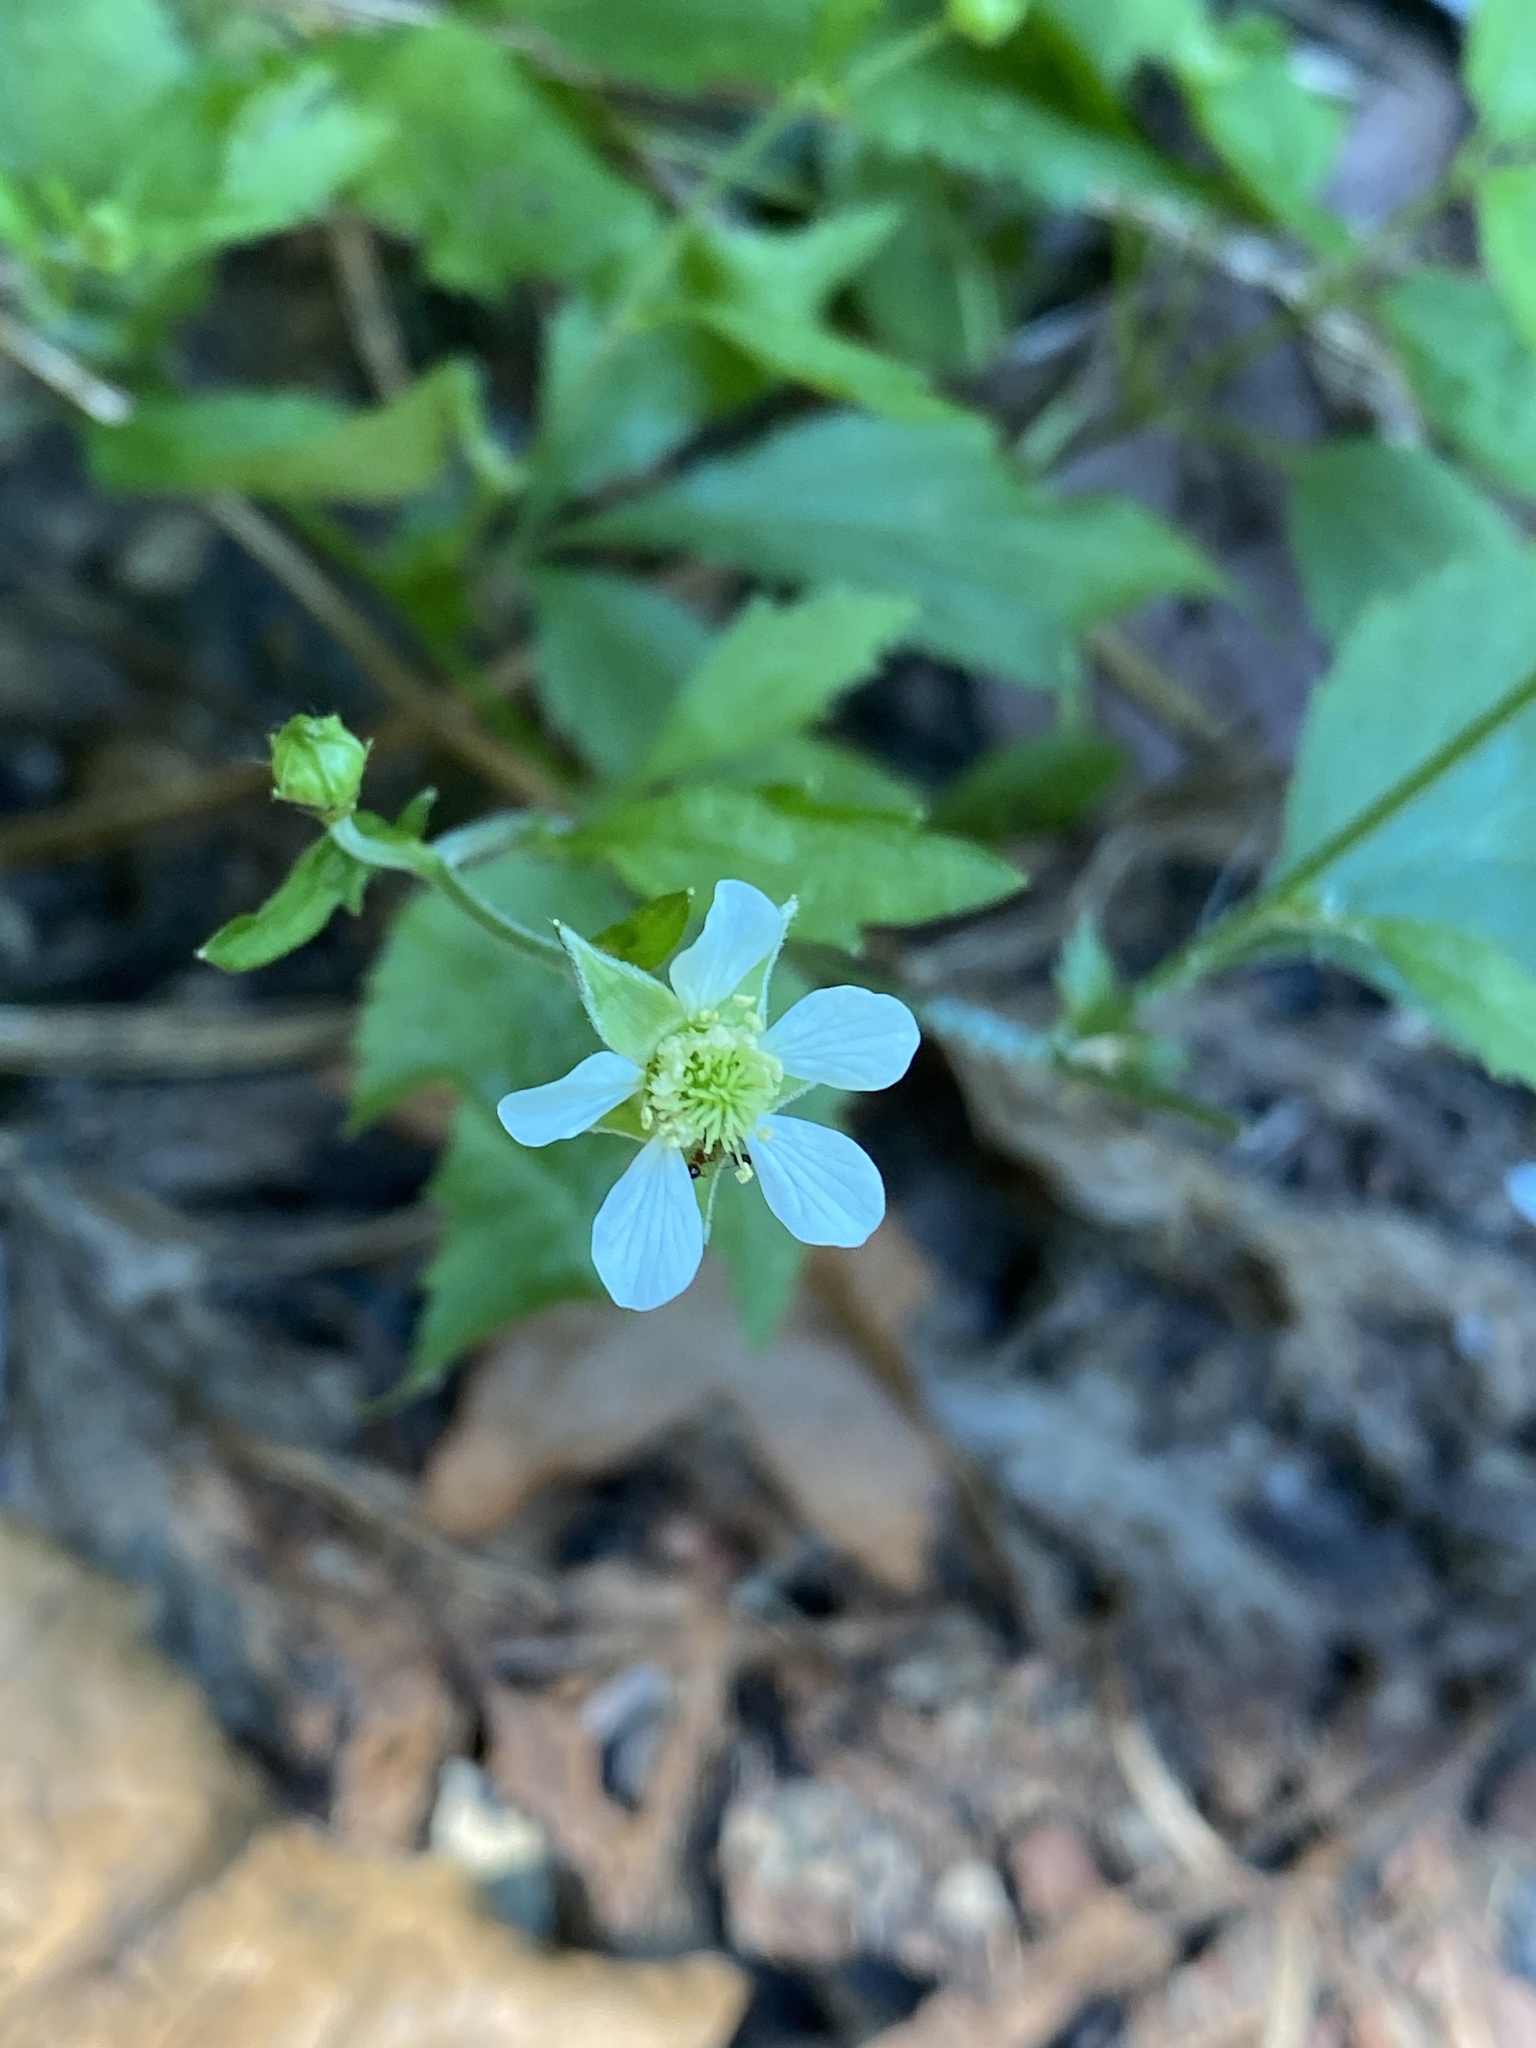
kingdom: Plantae
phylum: Tracheophyta
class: Magnoliopsida
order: Rosales
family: Rosaceae
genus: Geum
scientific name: Geum canadense
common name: White avens
